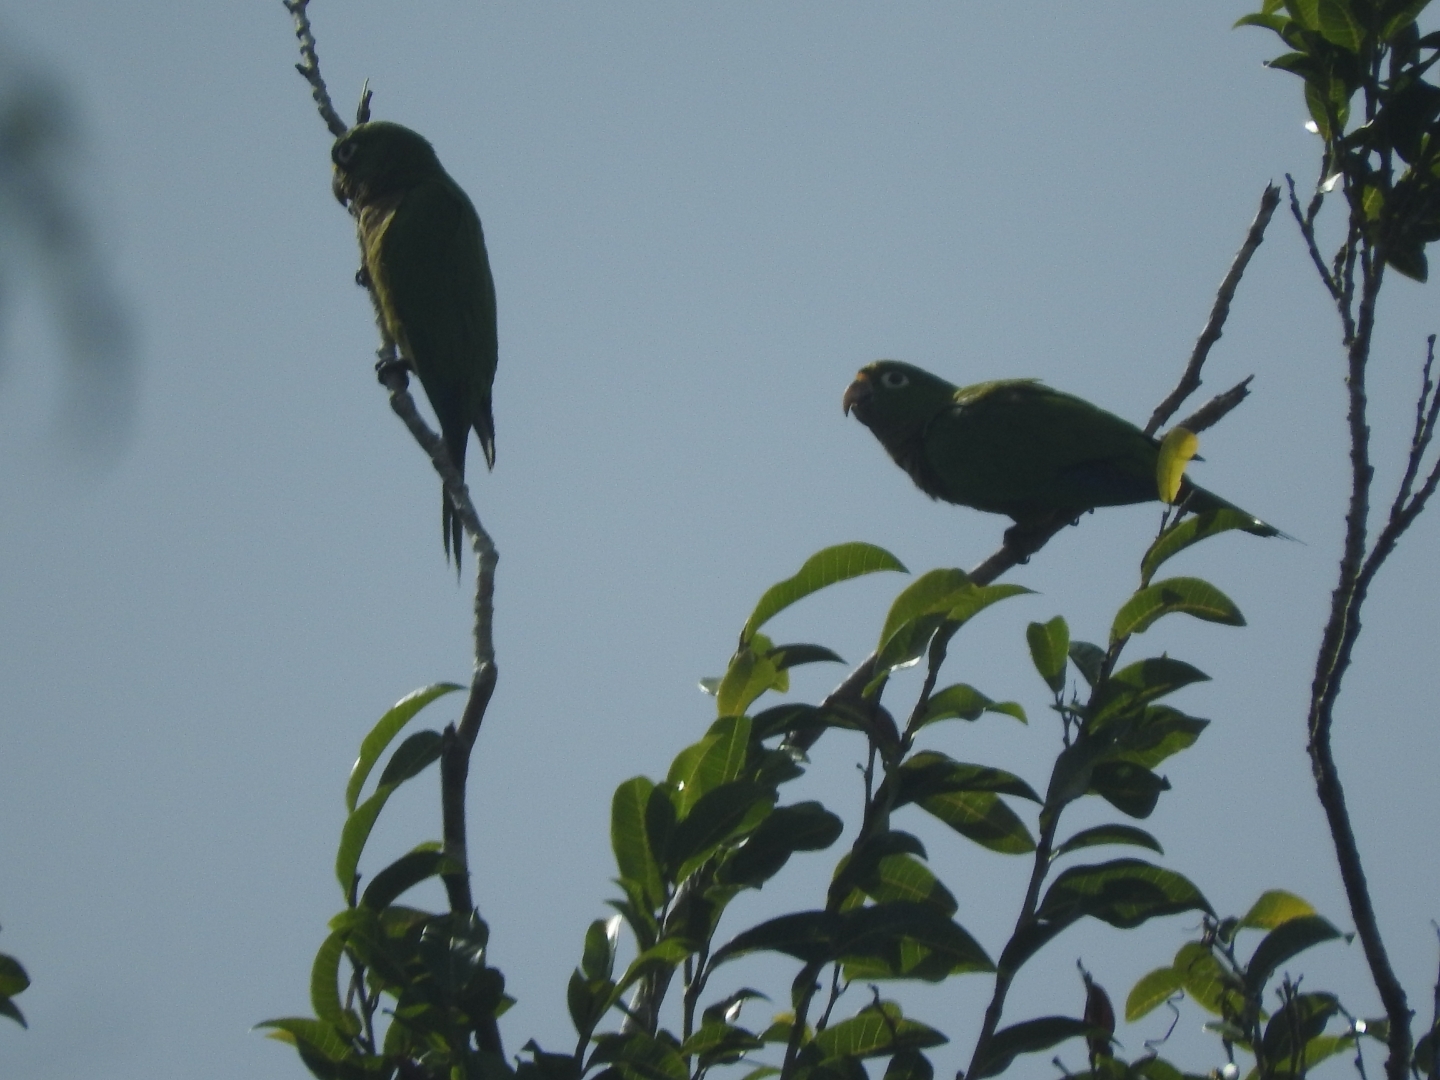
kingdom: Animalia
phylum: Chordata
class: Aves
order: Psittaciformes
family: Psittacidae
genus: Aratinga
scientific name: Aratinga nana
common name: Olive-throated parakeet
